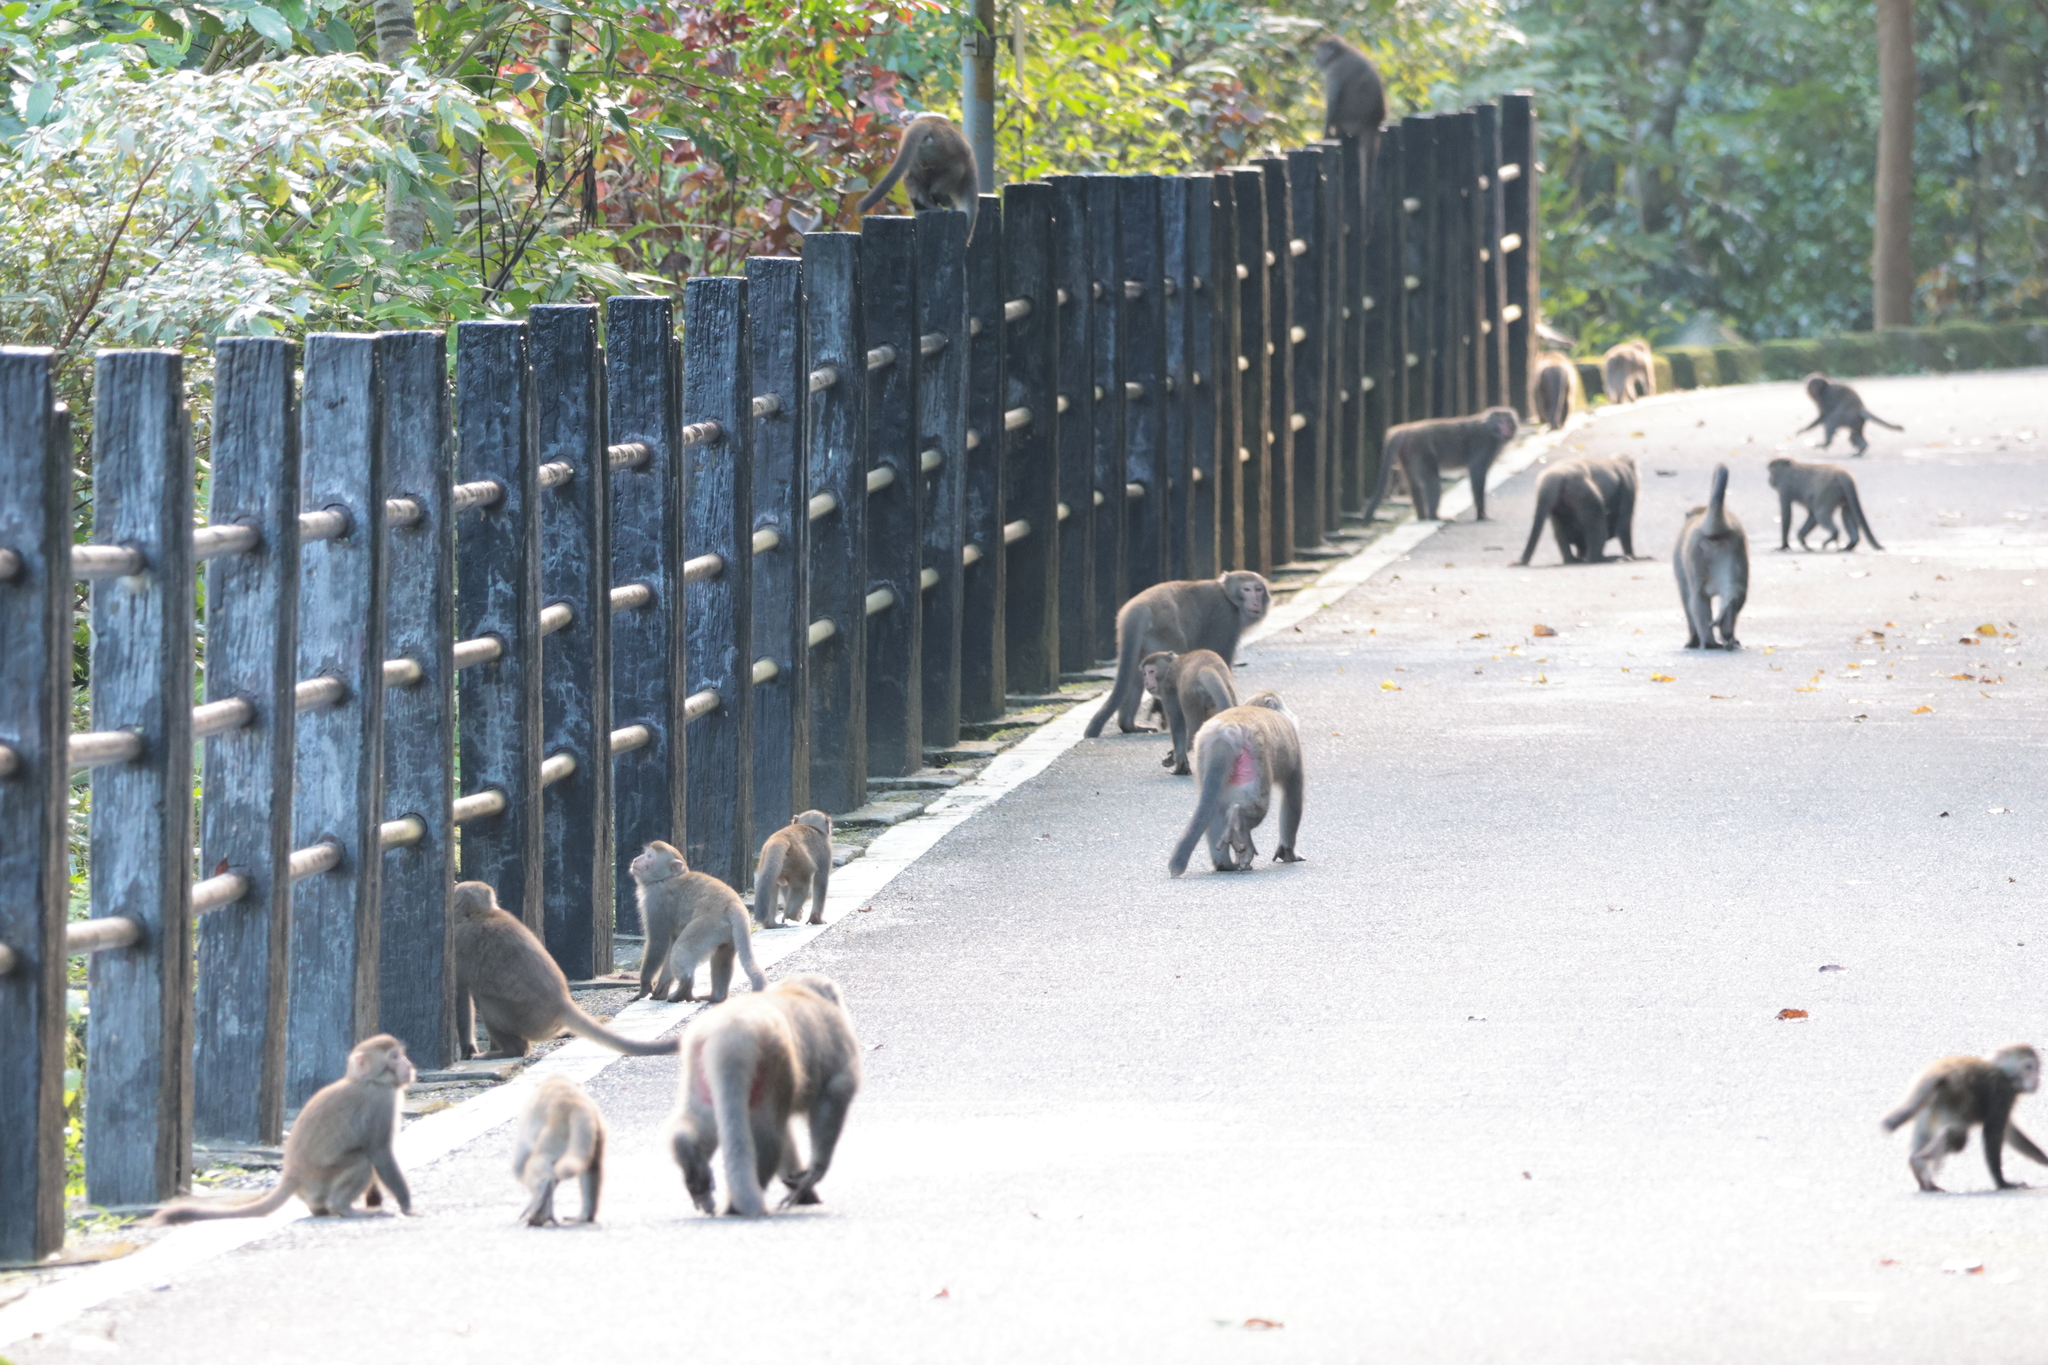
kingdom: Animalia
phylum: Chordata
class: Mammalia
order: Primates
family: Cercopithecidae
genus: Macaca
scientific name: Macaca cyclopis
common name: Formosan rock macaque
